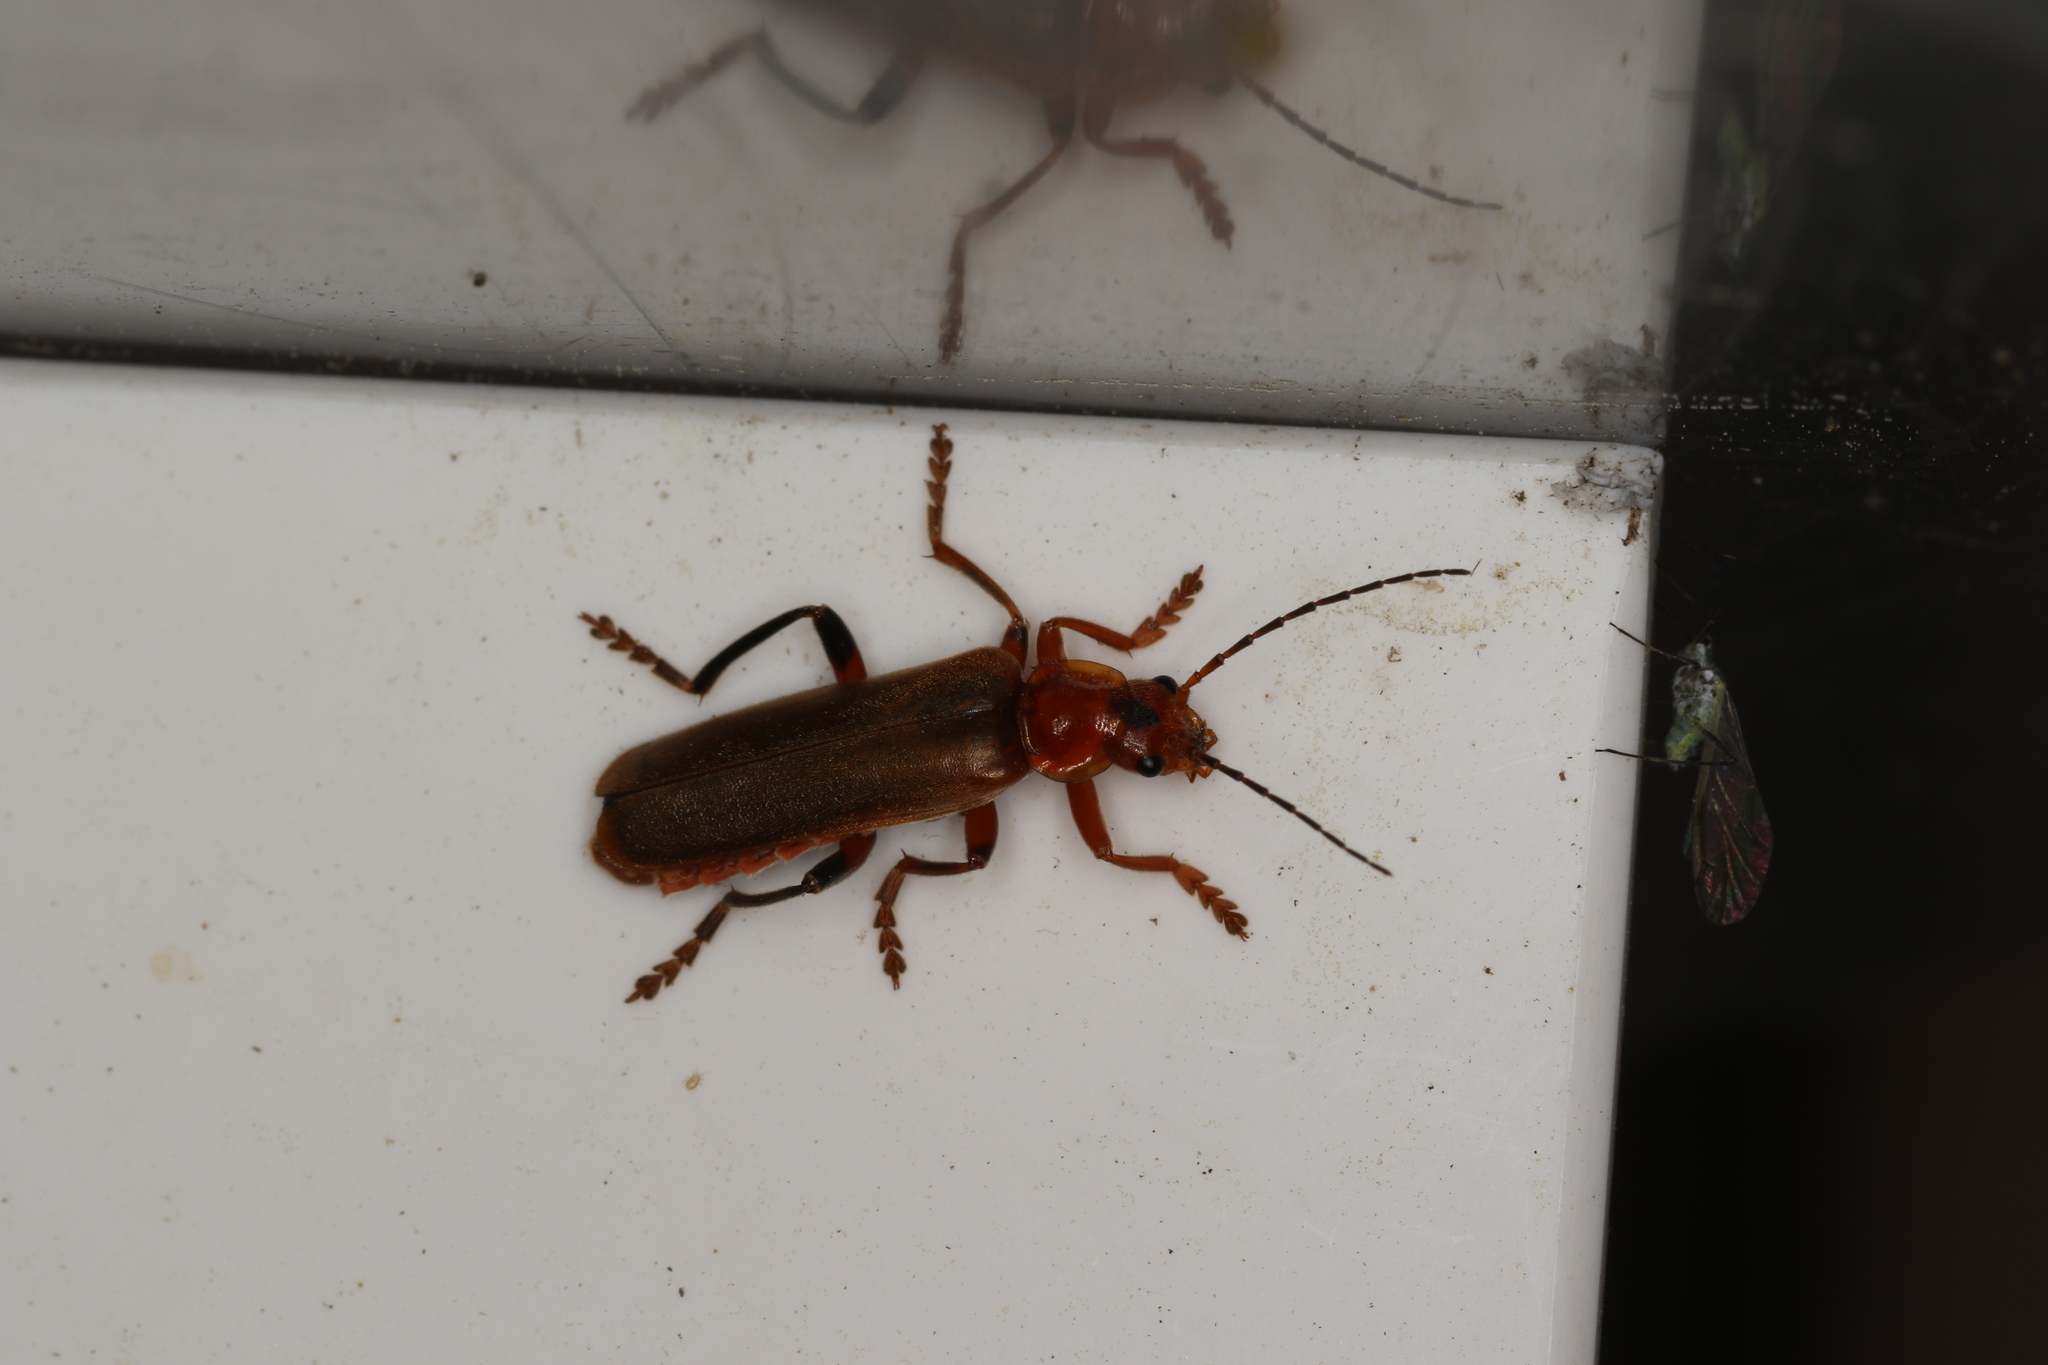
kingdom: Animalia
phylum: Arthropoda
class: Insecta
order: Coleoptera
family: Cantharidae
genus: Cantharis
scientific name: Cantharis livida
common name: Livid soldier beetle
